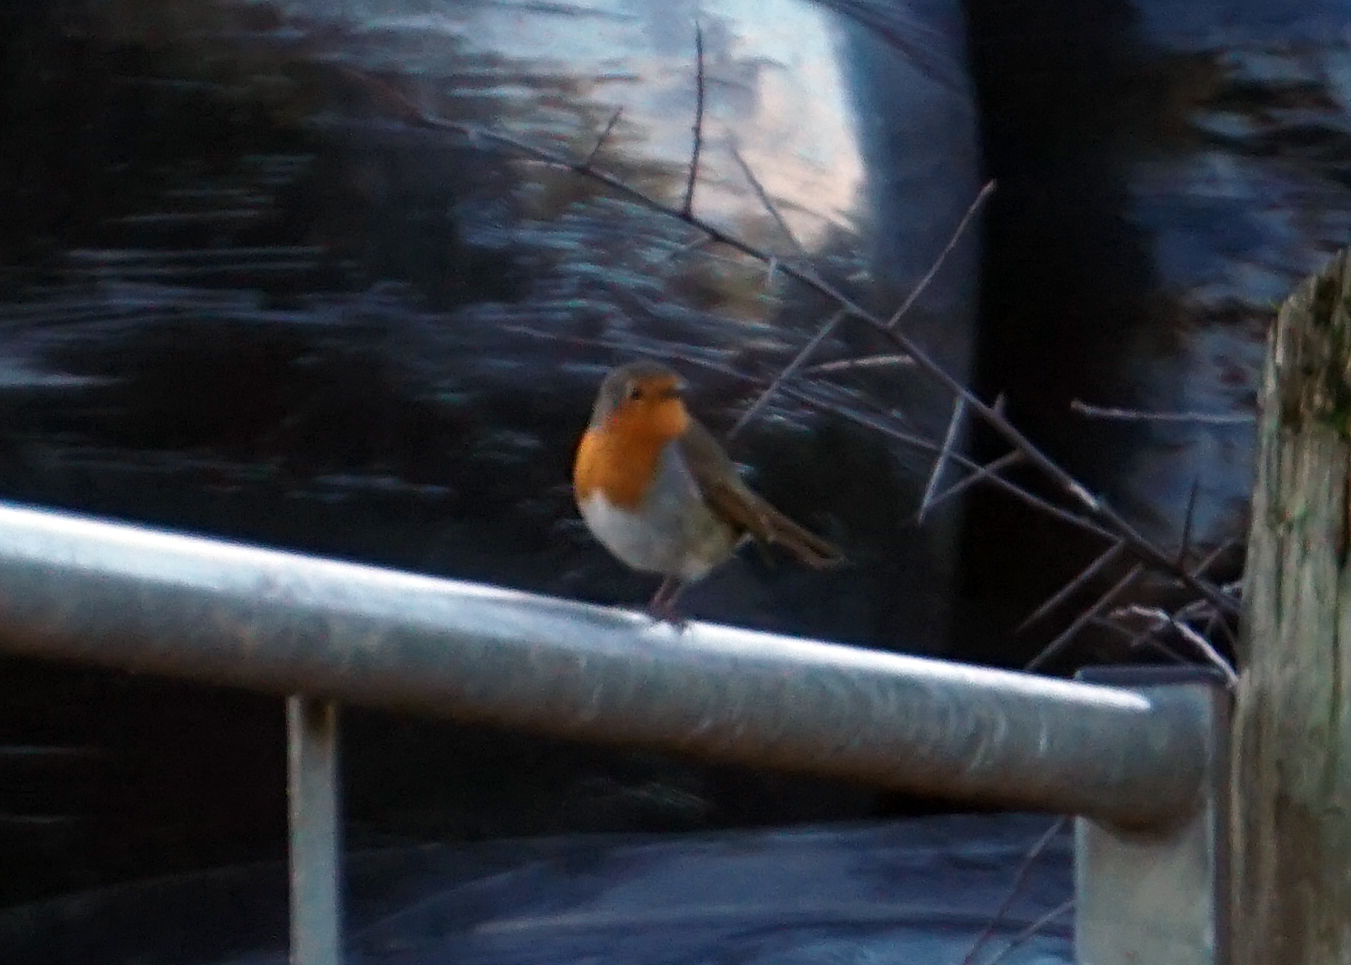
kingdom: Animalia
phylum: Chordata
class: Aves
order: Passeriformes
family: Muscicapidae
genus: Erithacus
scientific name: Erithacus rubecula
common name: European robin
